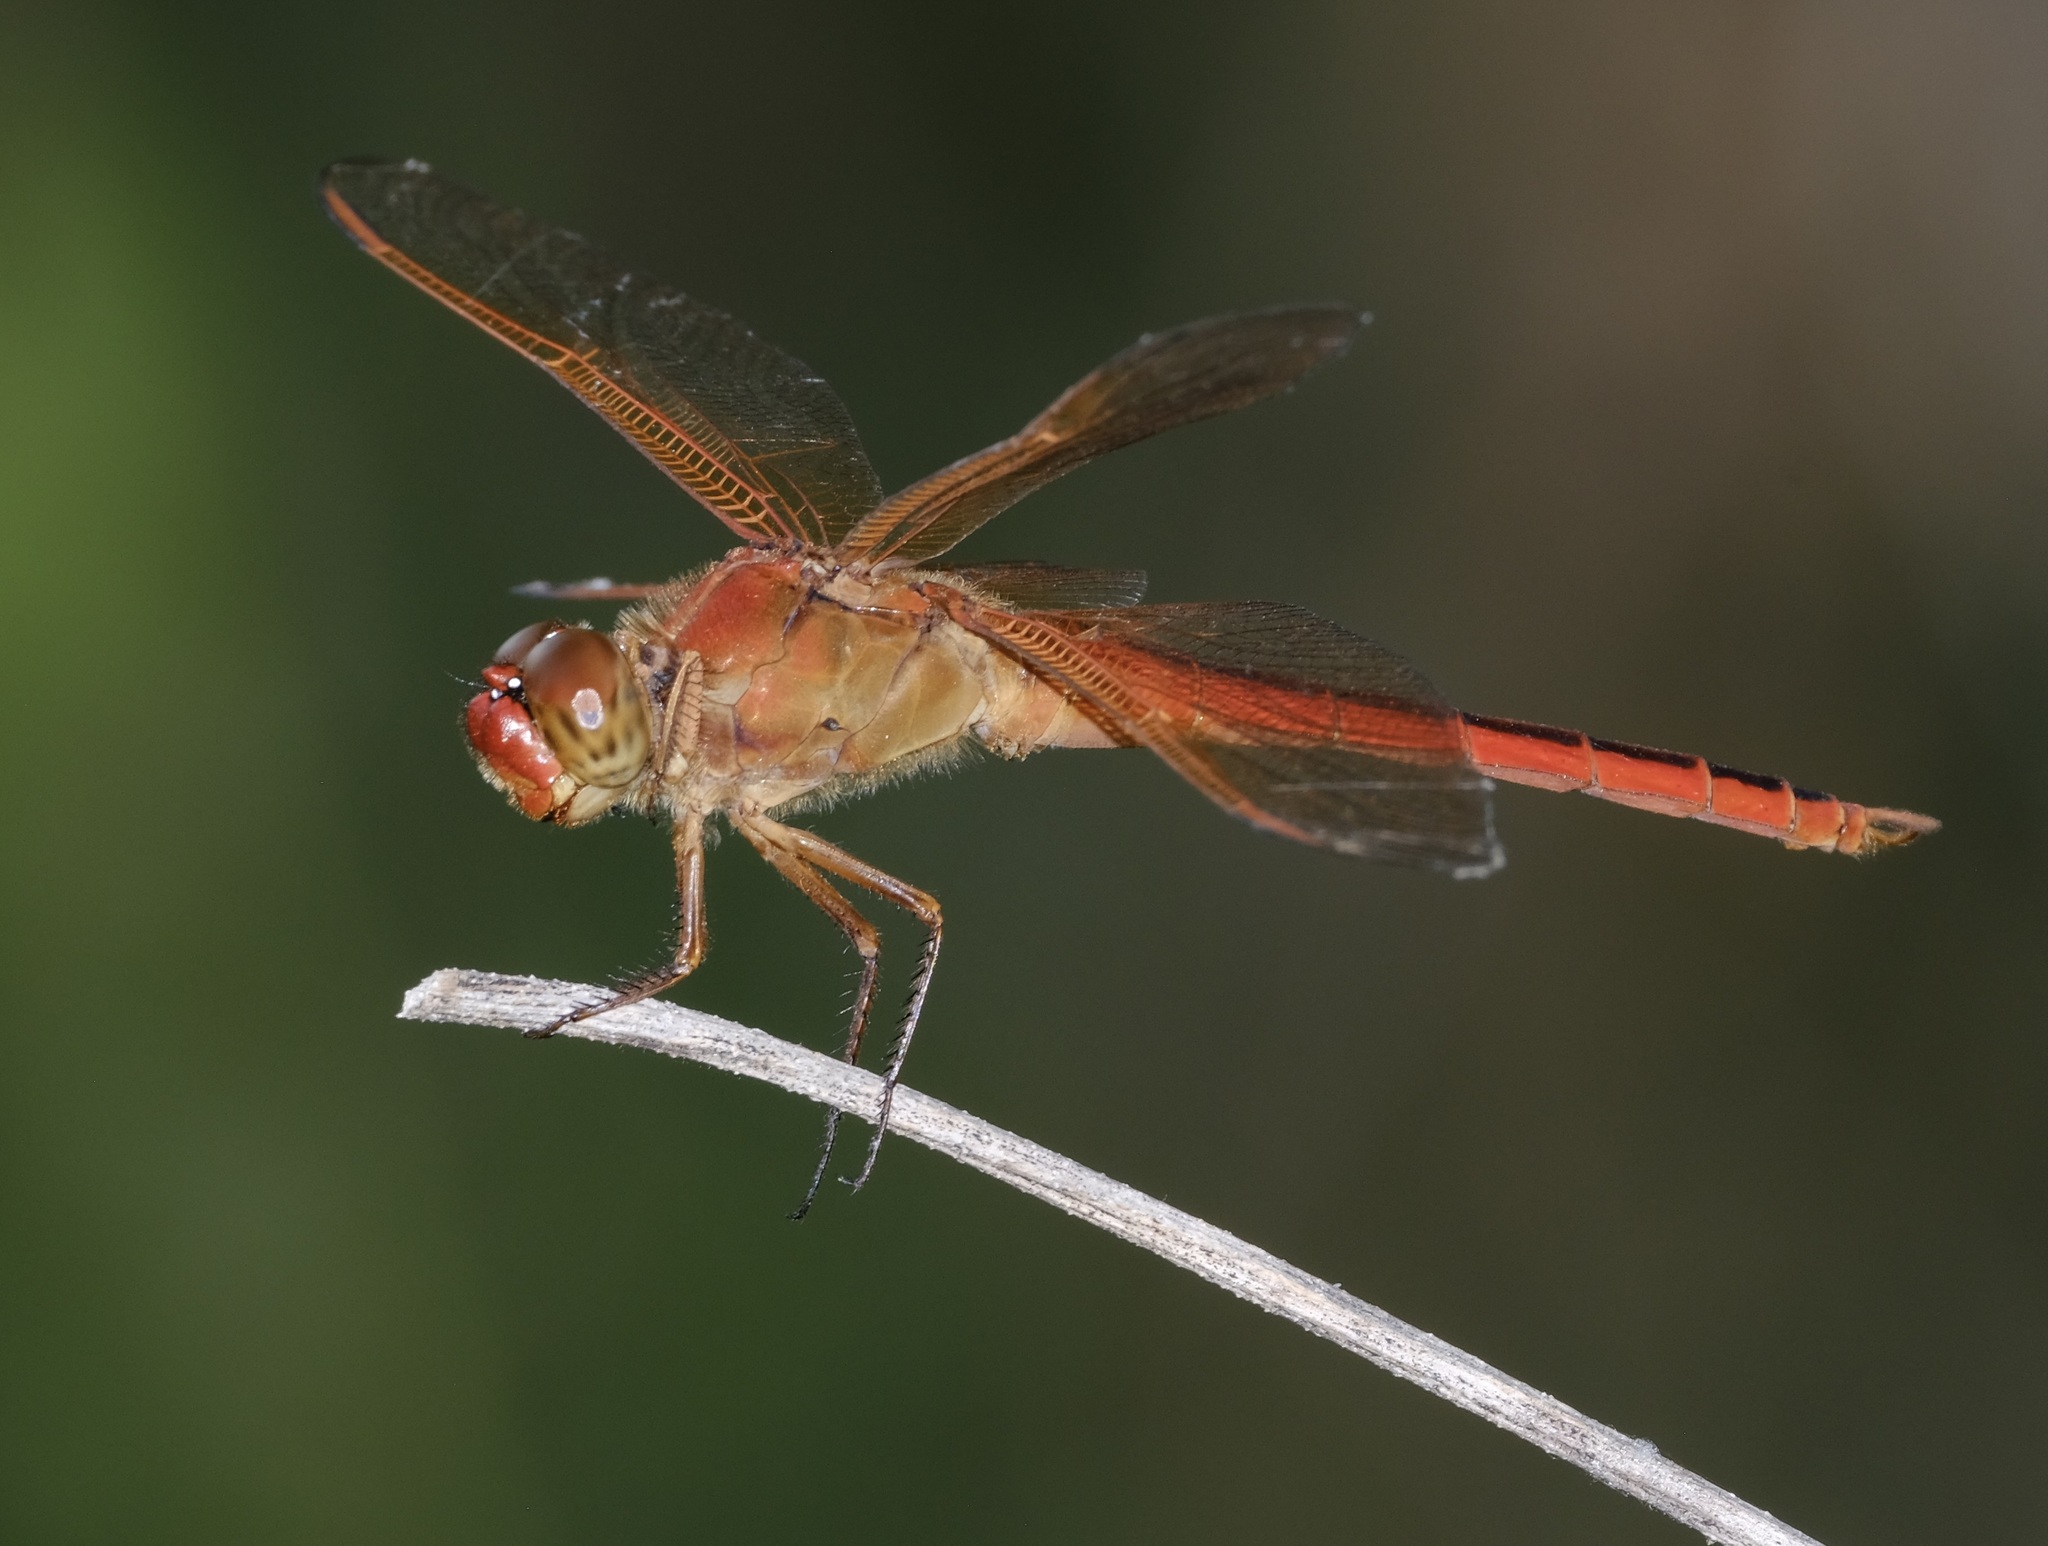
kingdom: Animalia
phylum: Arthropoda
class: Insecta
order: Odonata
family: Libellulidae
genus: Libellula
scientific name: Libellula needhami
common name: Needham's skimmer
